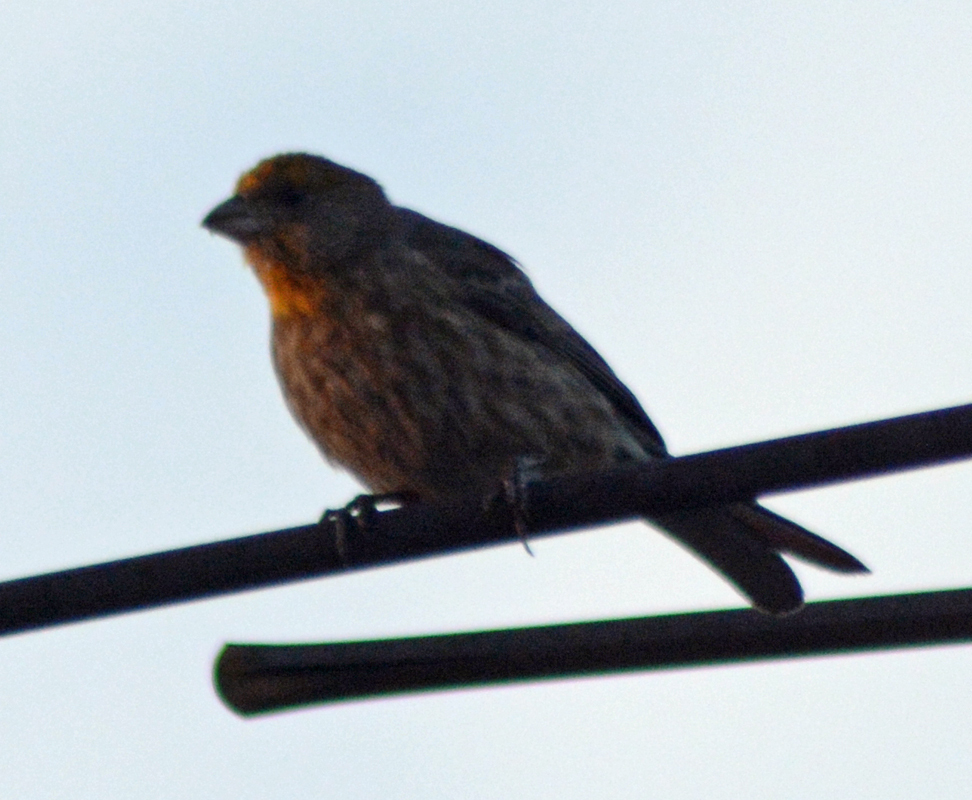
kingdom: Animalia
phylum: Chordata
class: Aves
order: Passeriformes
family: Fringillidae
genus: Haemorhous
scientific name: Haemorhous mexicanus
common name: House finch
